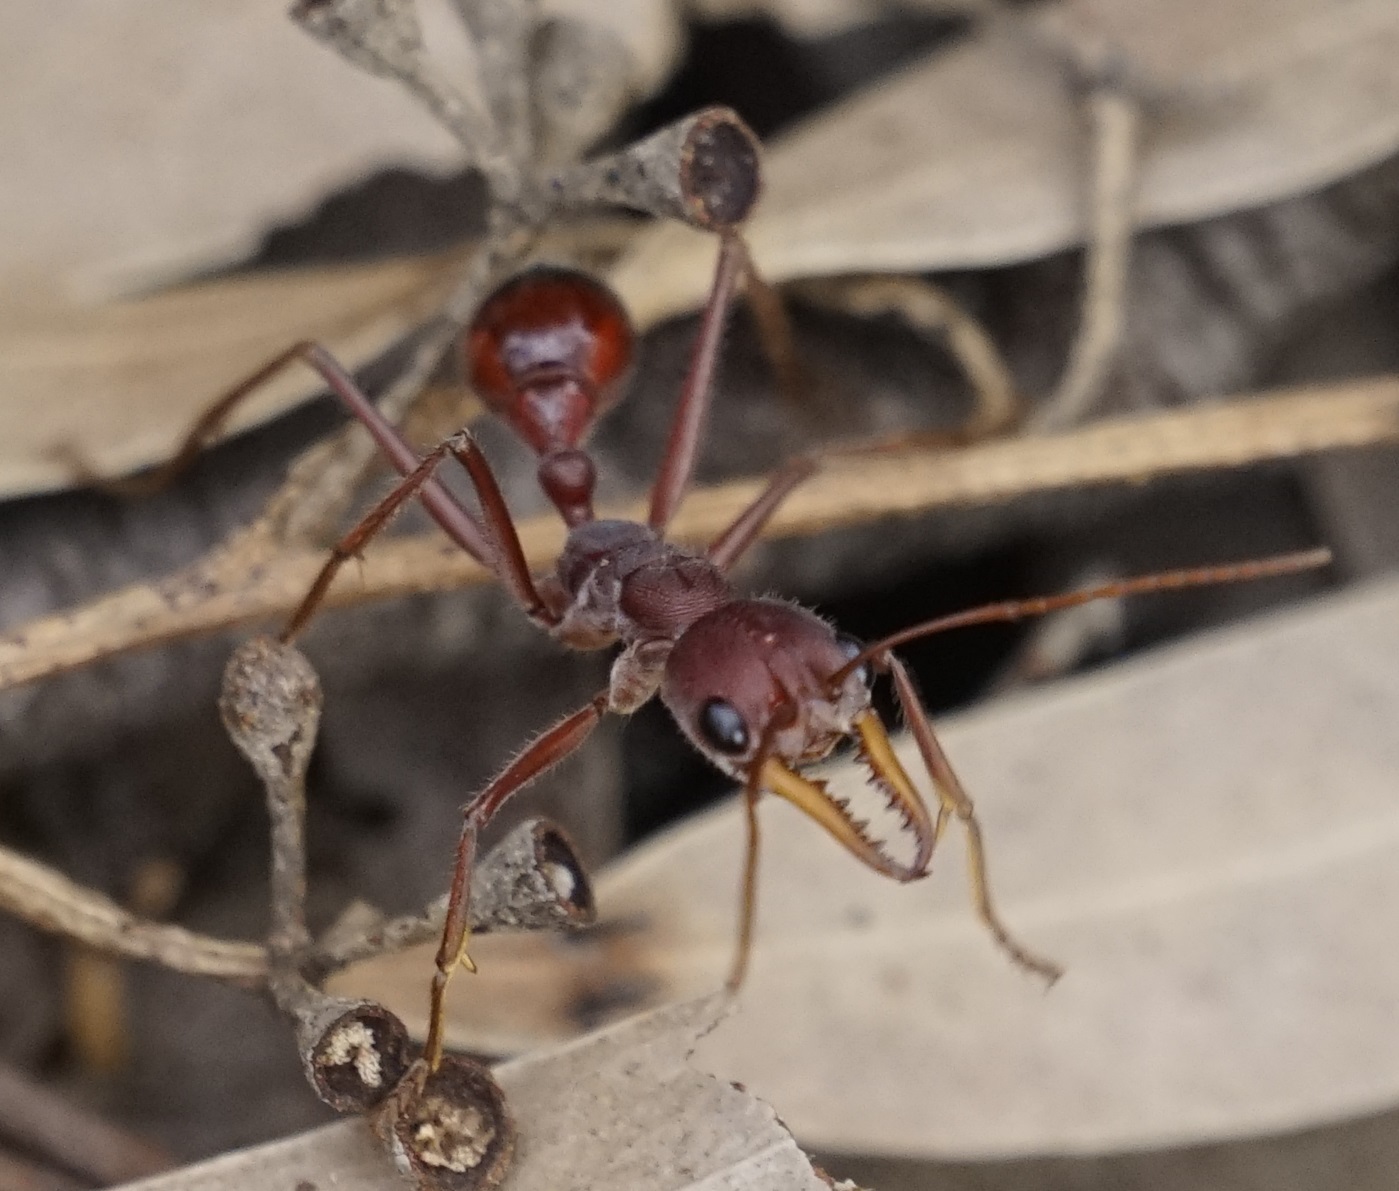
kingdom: Animalia
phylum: Arthropoda
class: Insecta
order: Hymenoptera
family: Formicidae
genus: Myrmecia
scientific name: Myrmecia gulosa
